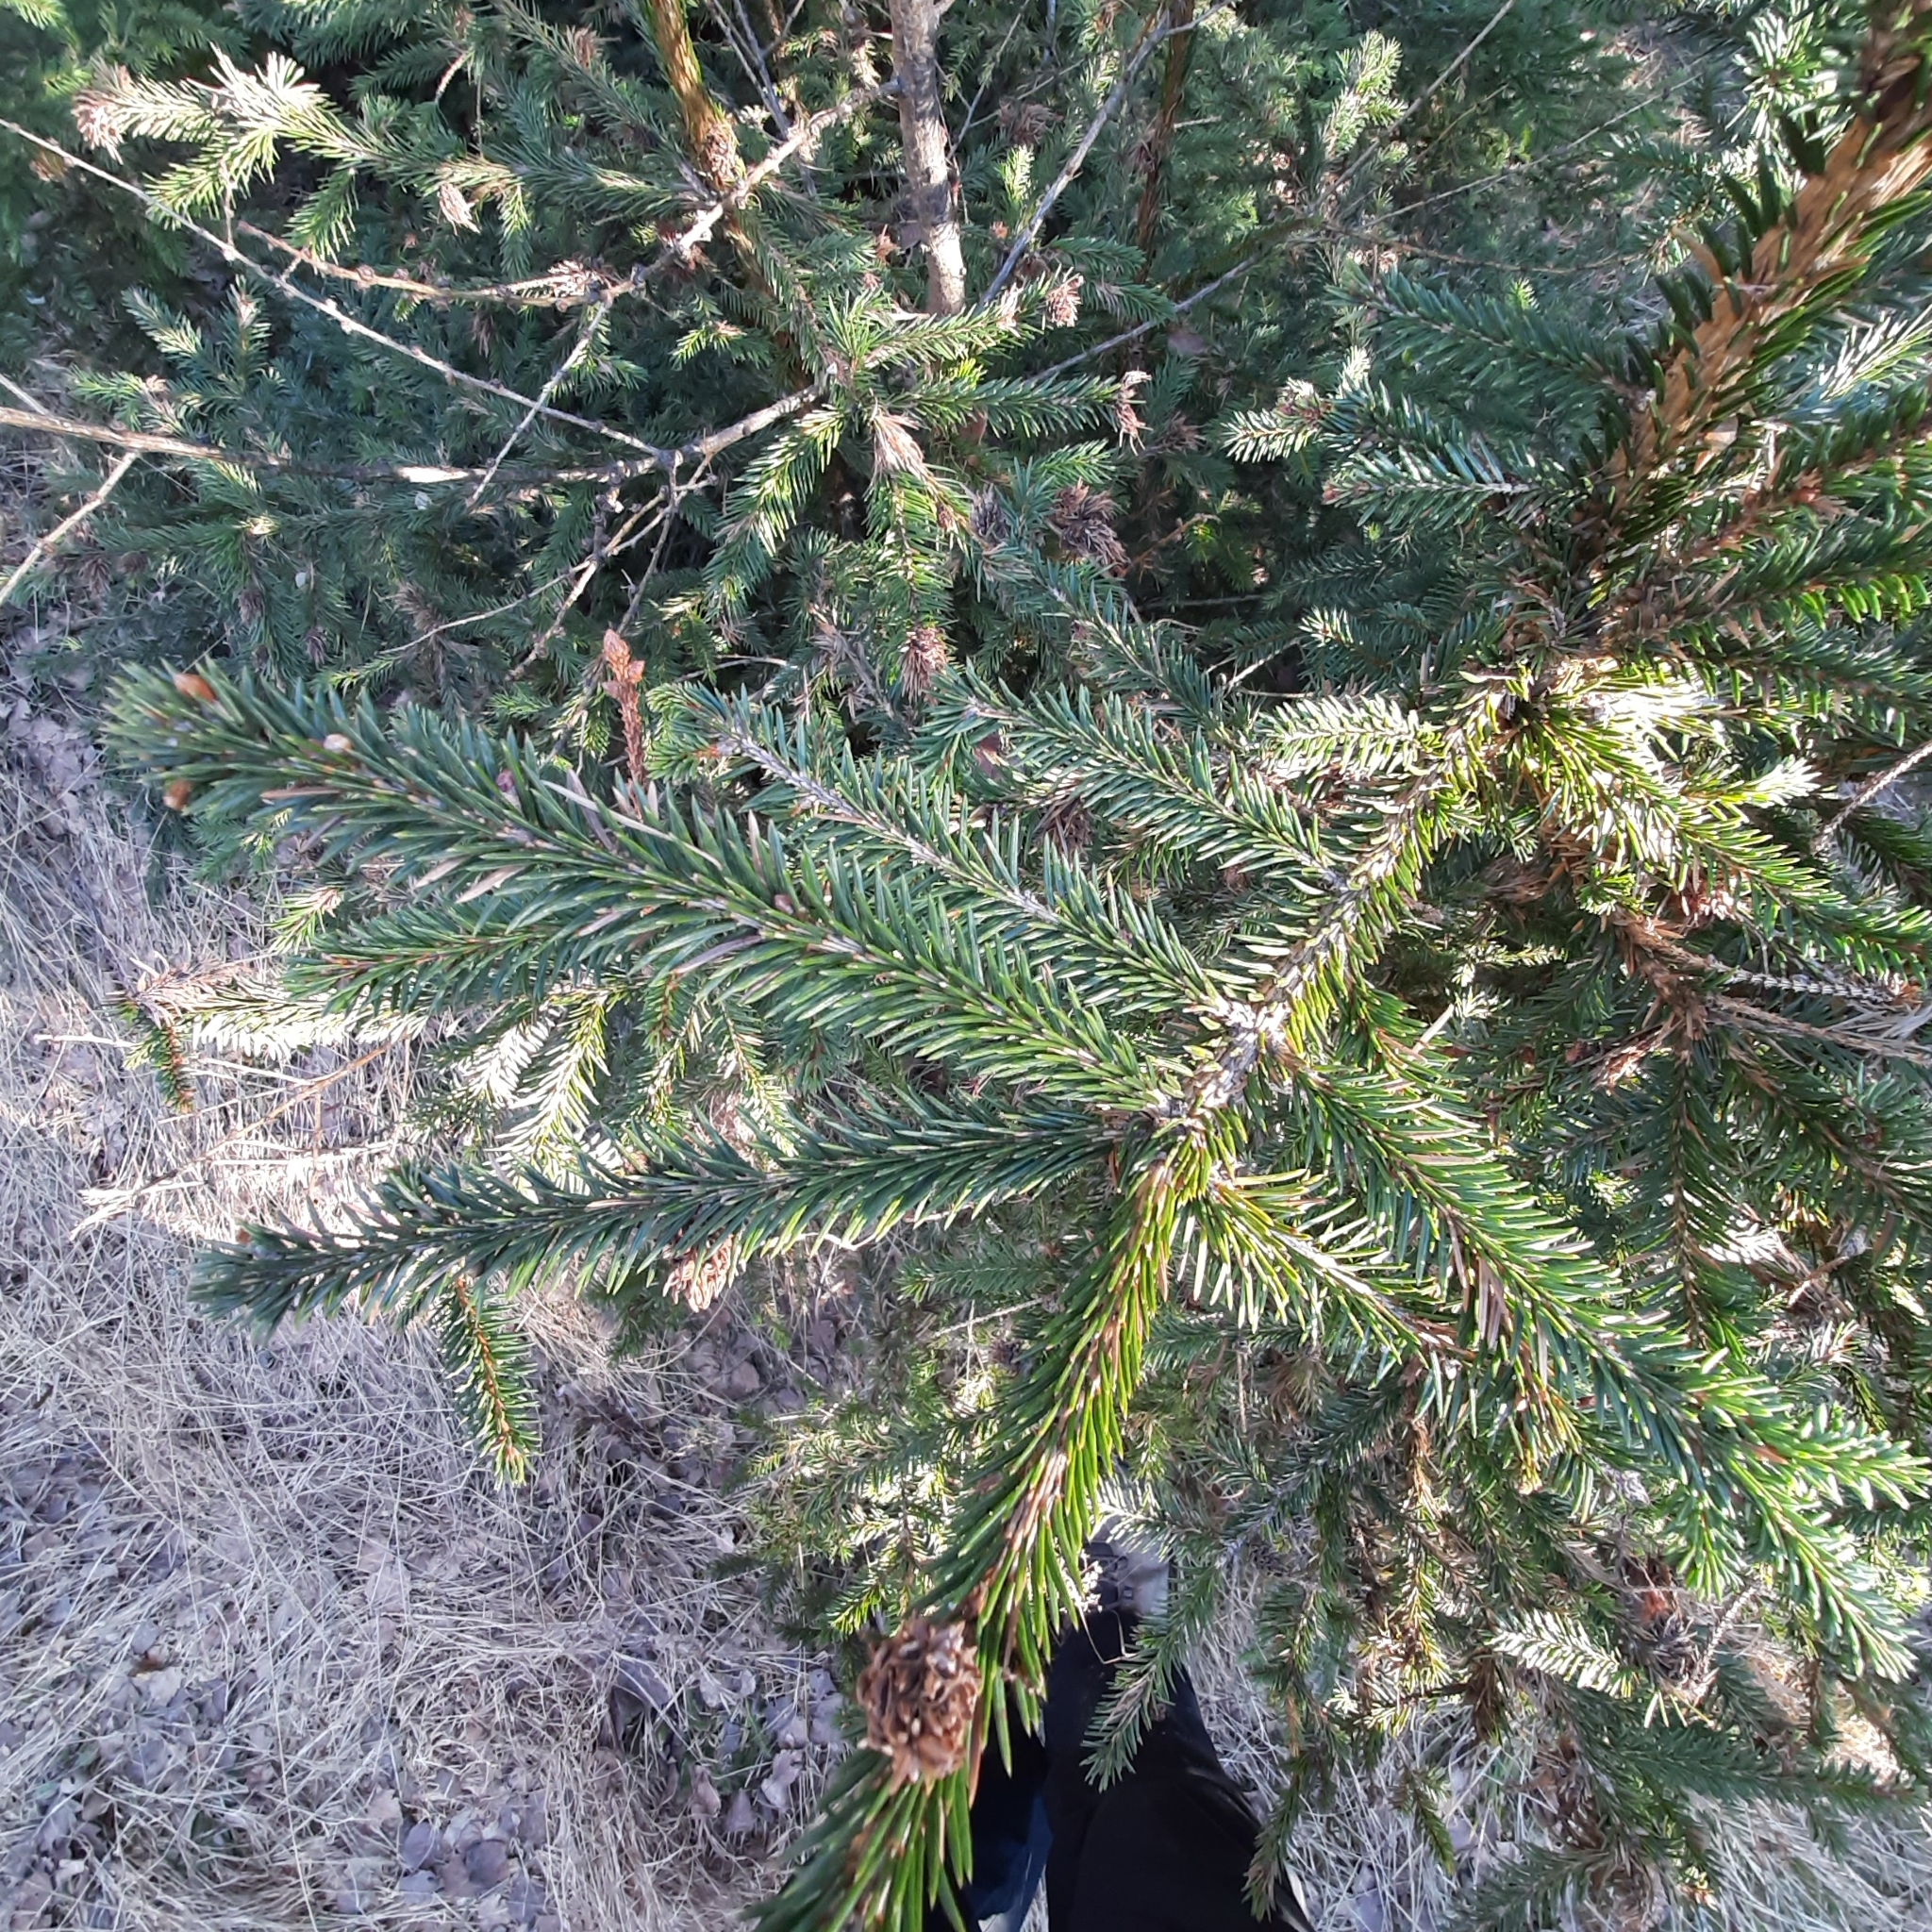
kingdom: Plantae
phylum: Tracheophyta
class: Pinopsida
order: Pinales
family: Pinaceae
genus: Picea
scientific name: Picea abies
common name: Norway spruce
